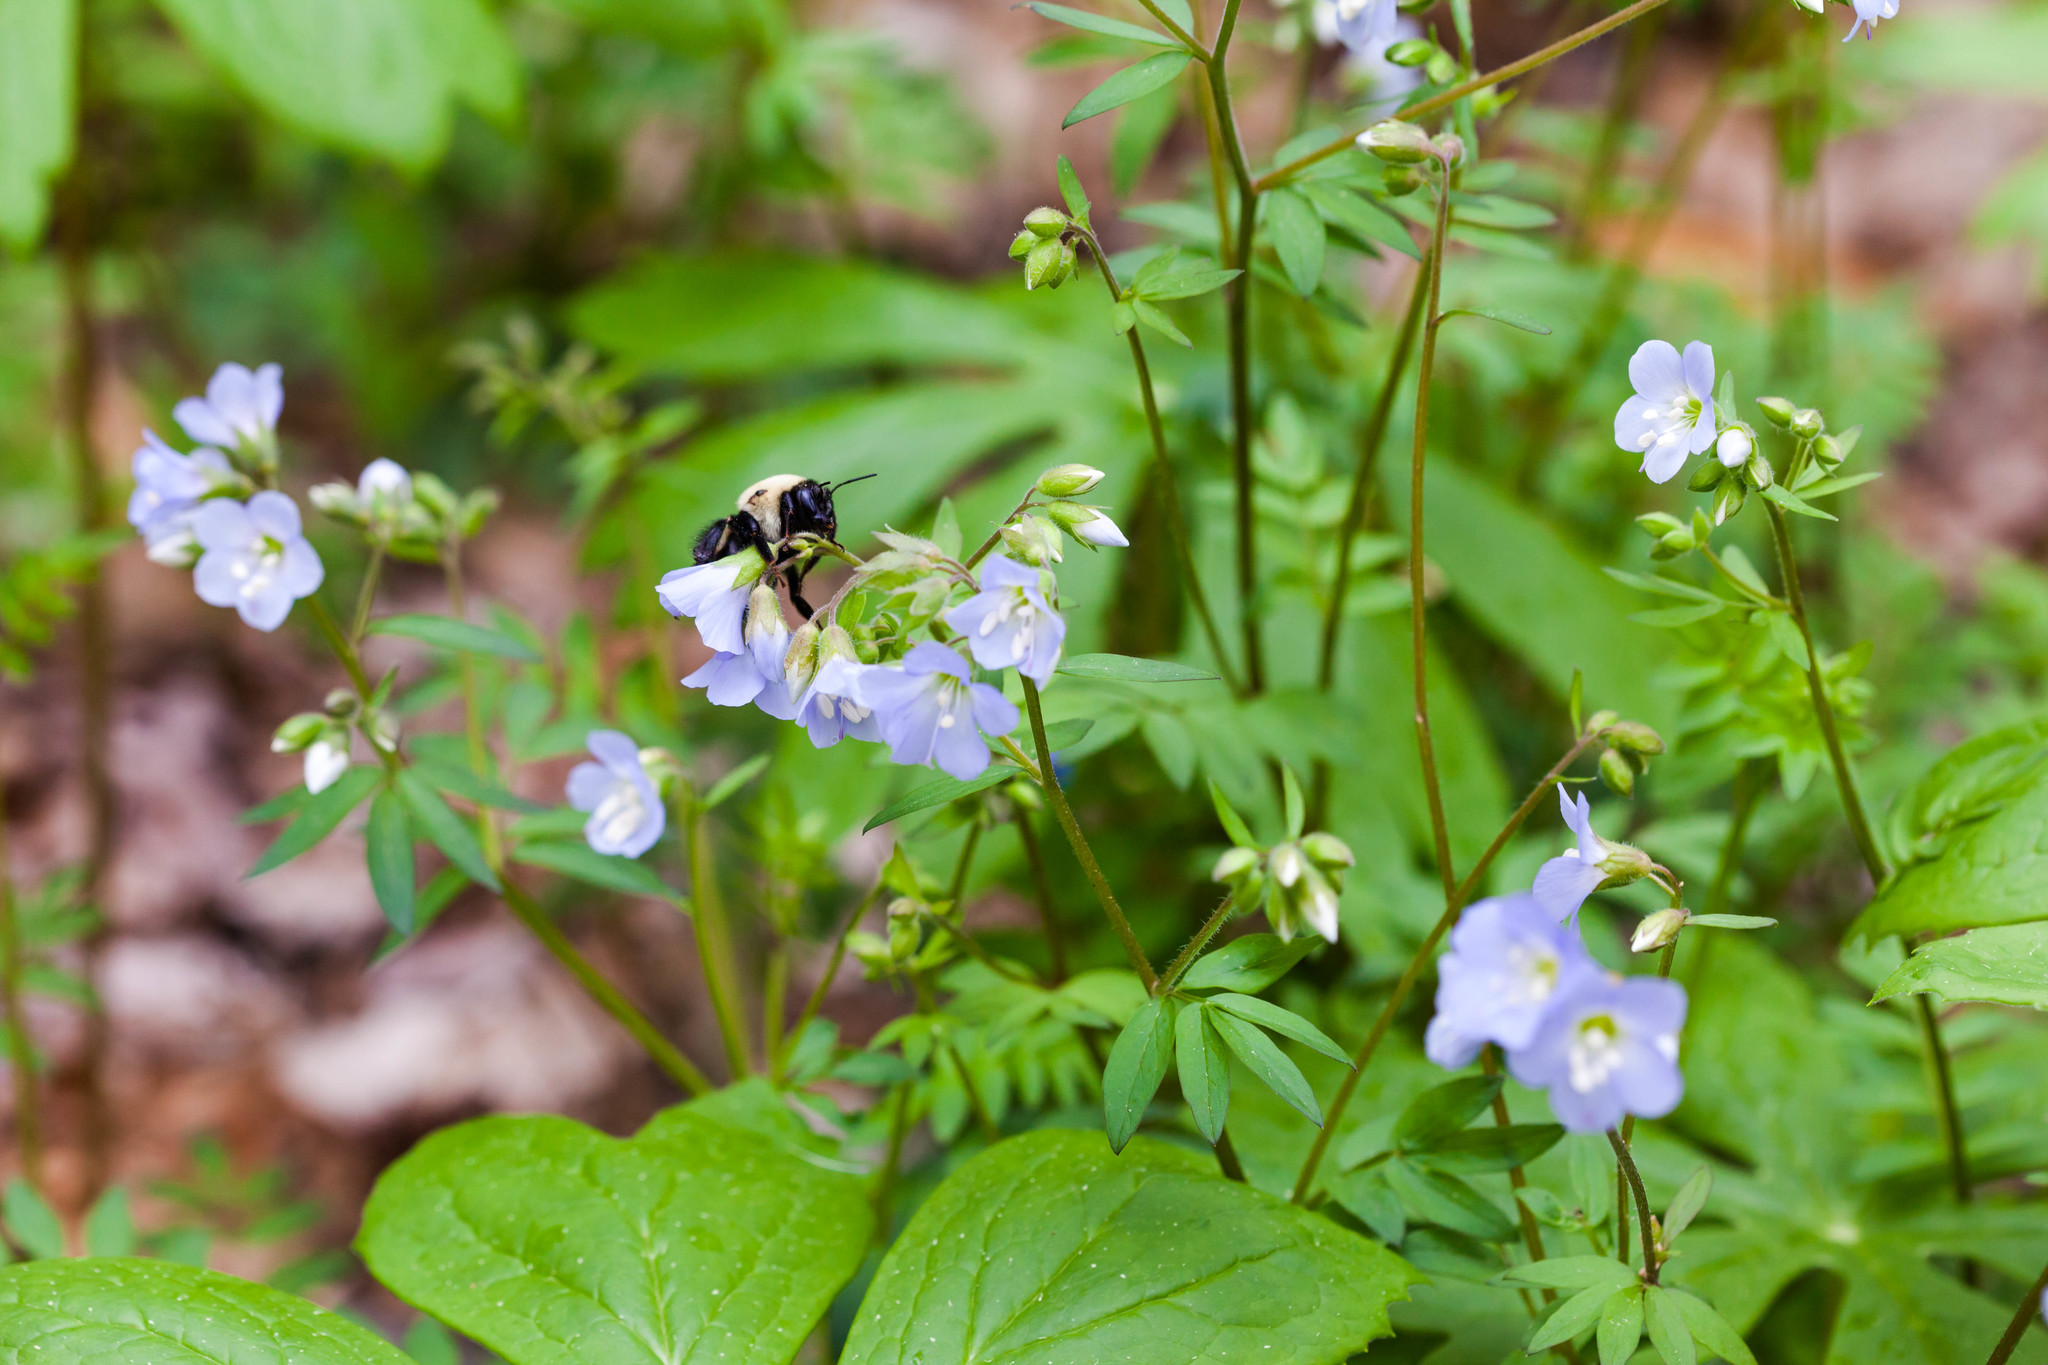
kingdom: Plantae
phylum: Tracheophyta
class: Magnoliopsida
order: Ericales
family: Polemoniaceae
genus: Polemonium
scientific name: Polemonium reptans
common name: Creeping jacob's-ladder
